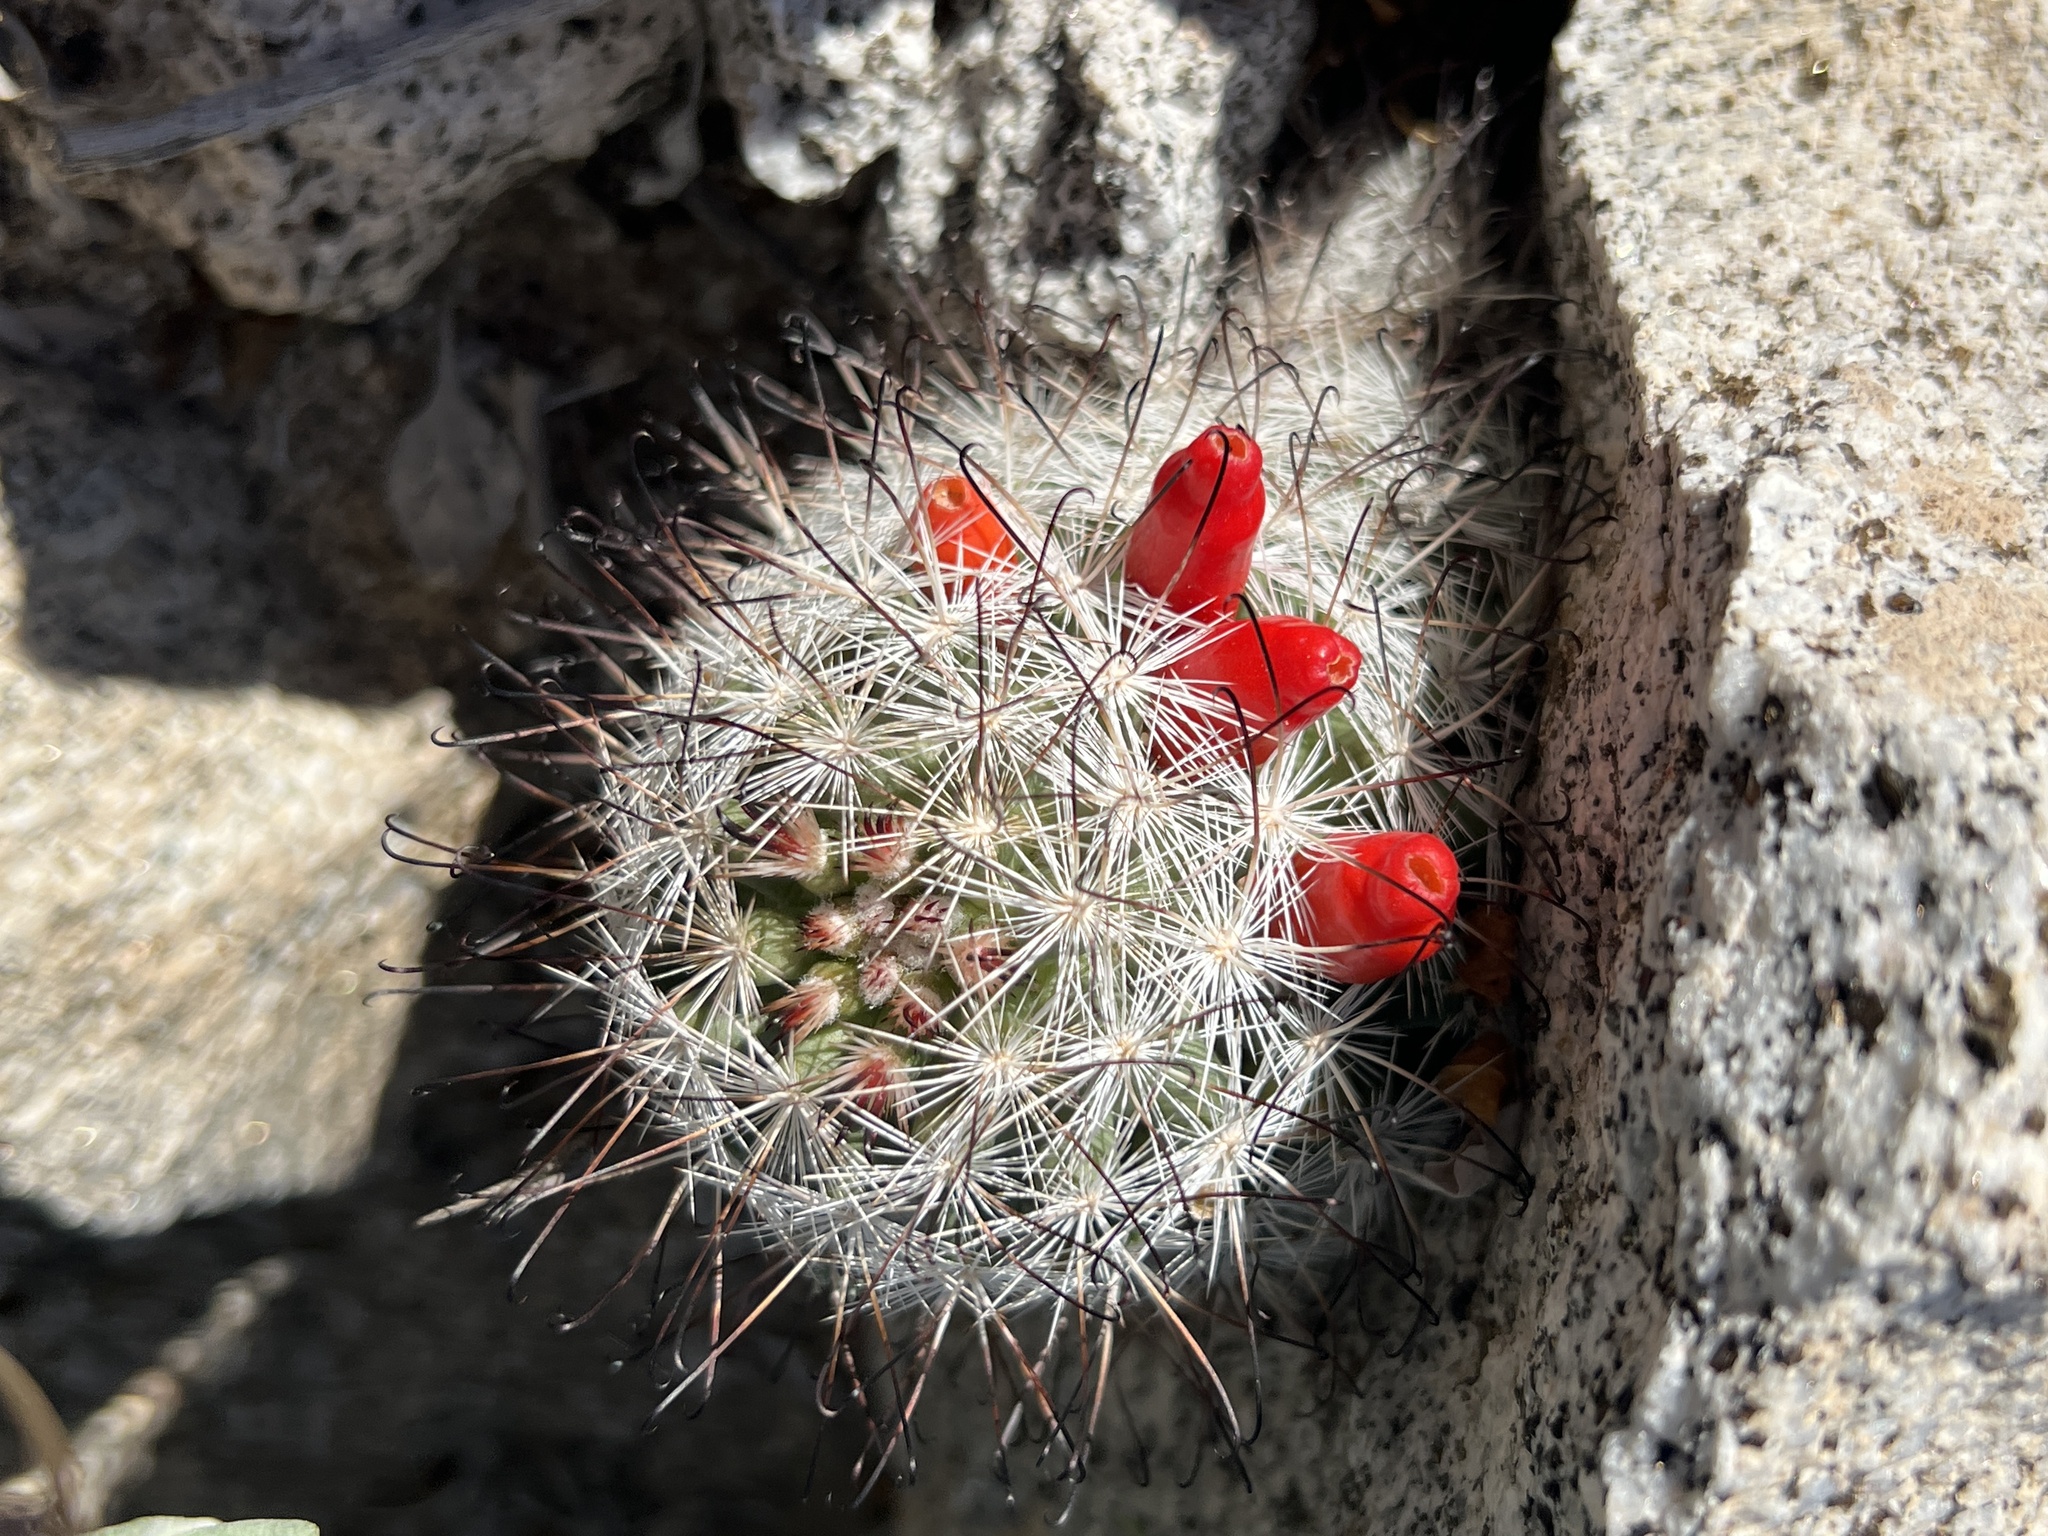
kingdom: Plantae
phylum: Tracheophyta
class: Magnoliopsida
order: Caryophyllales
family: Cactaceae
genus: Cochemiea
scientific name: Cochemiea tetrancistra
